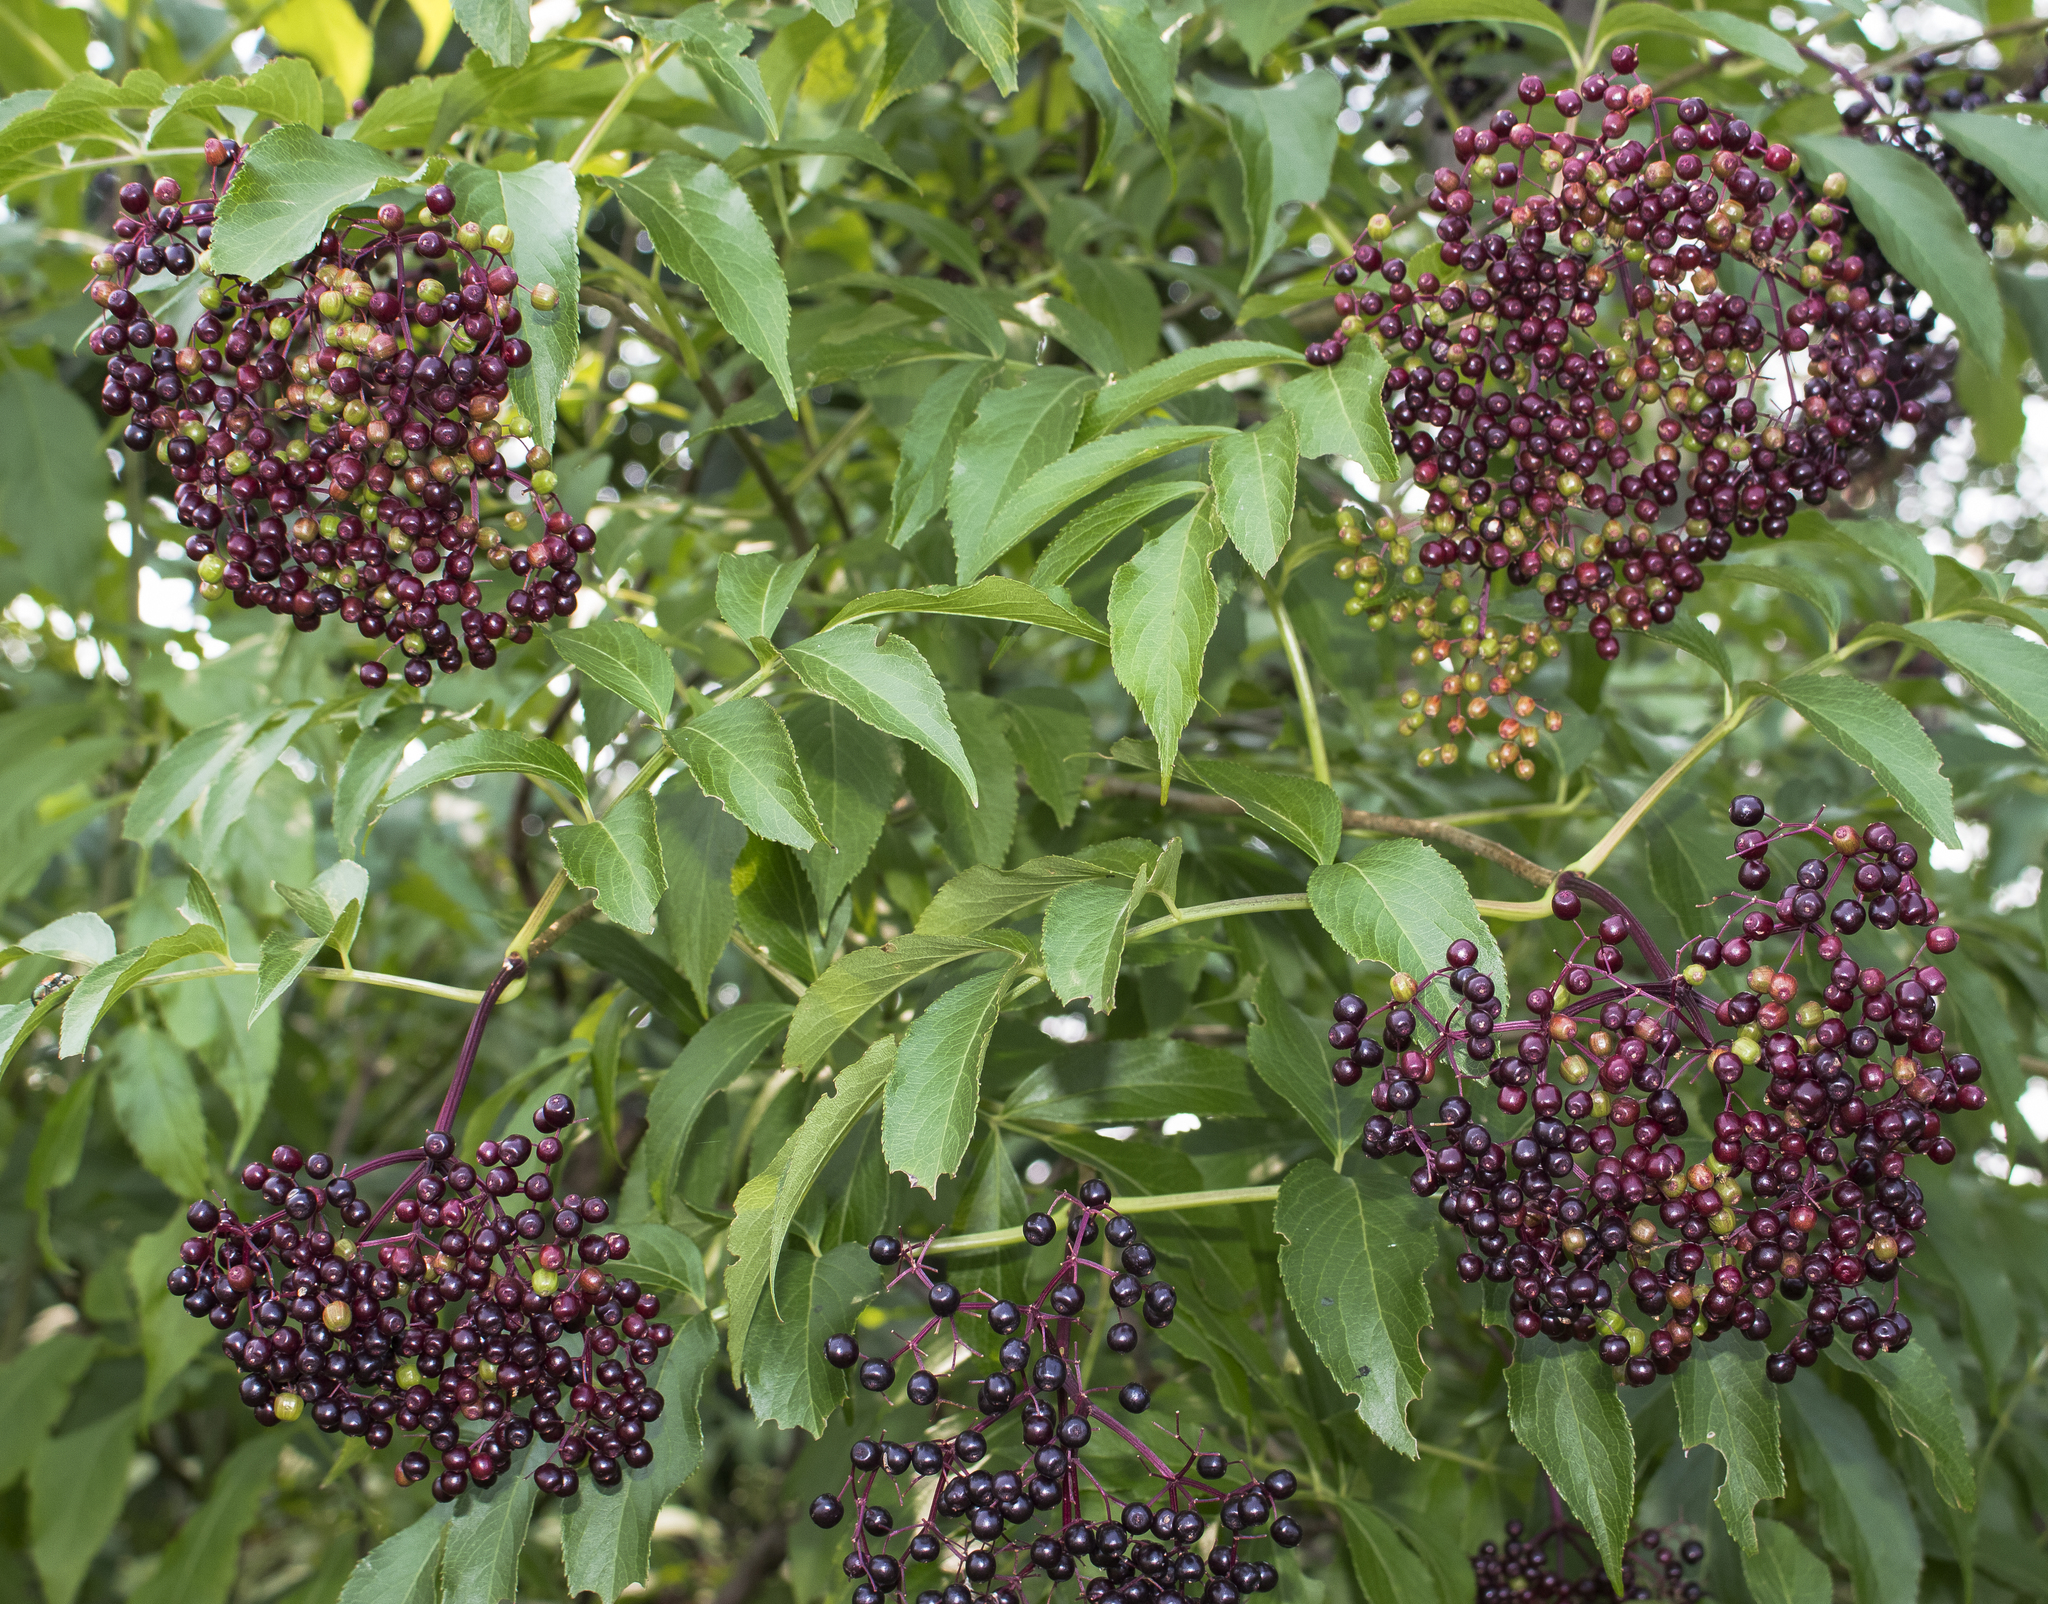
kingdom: Plantae
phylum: Tracheophyta
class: Magnoliopsida
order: Dipsacales
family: Viburnaceae
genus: Sambucus
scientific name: Sambucus canadensis
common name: American elder
